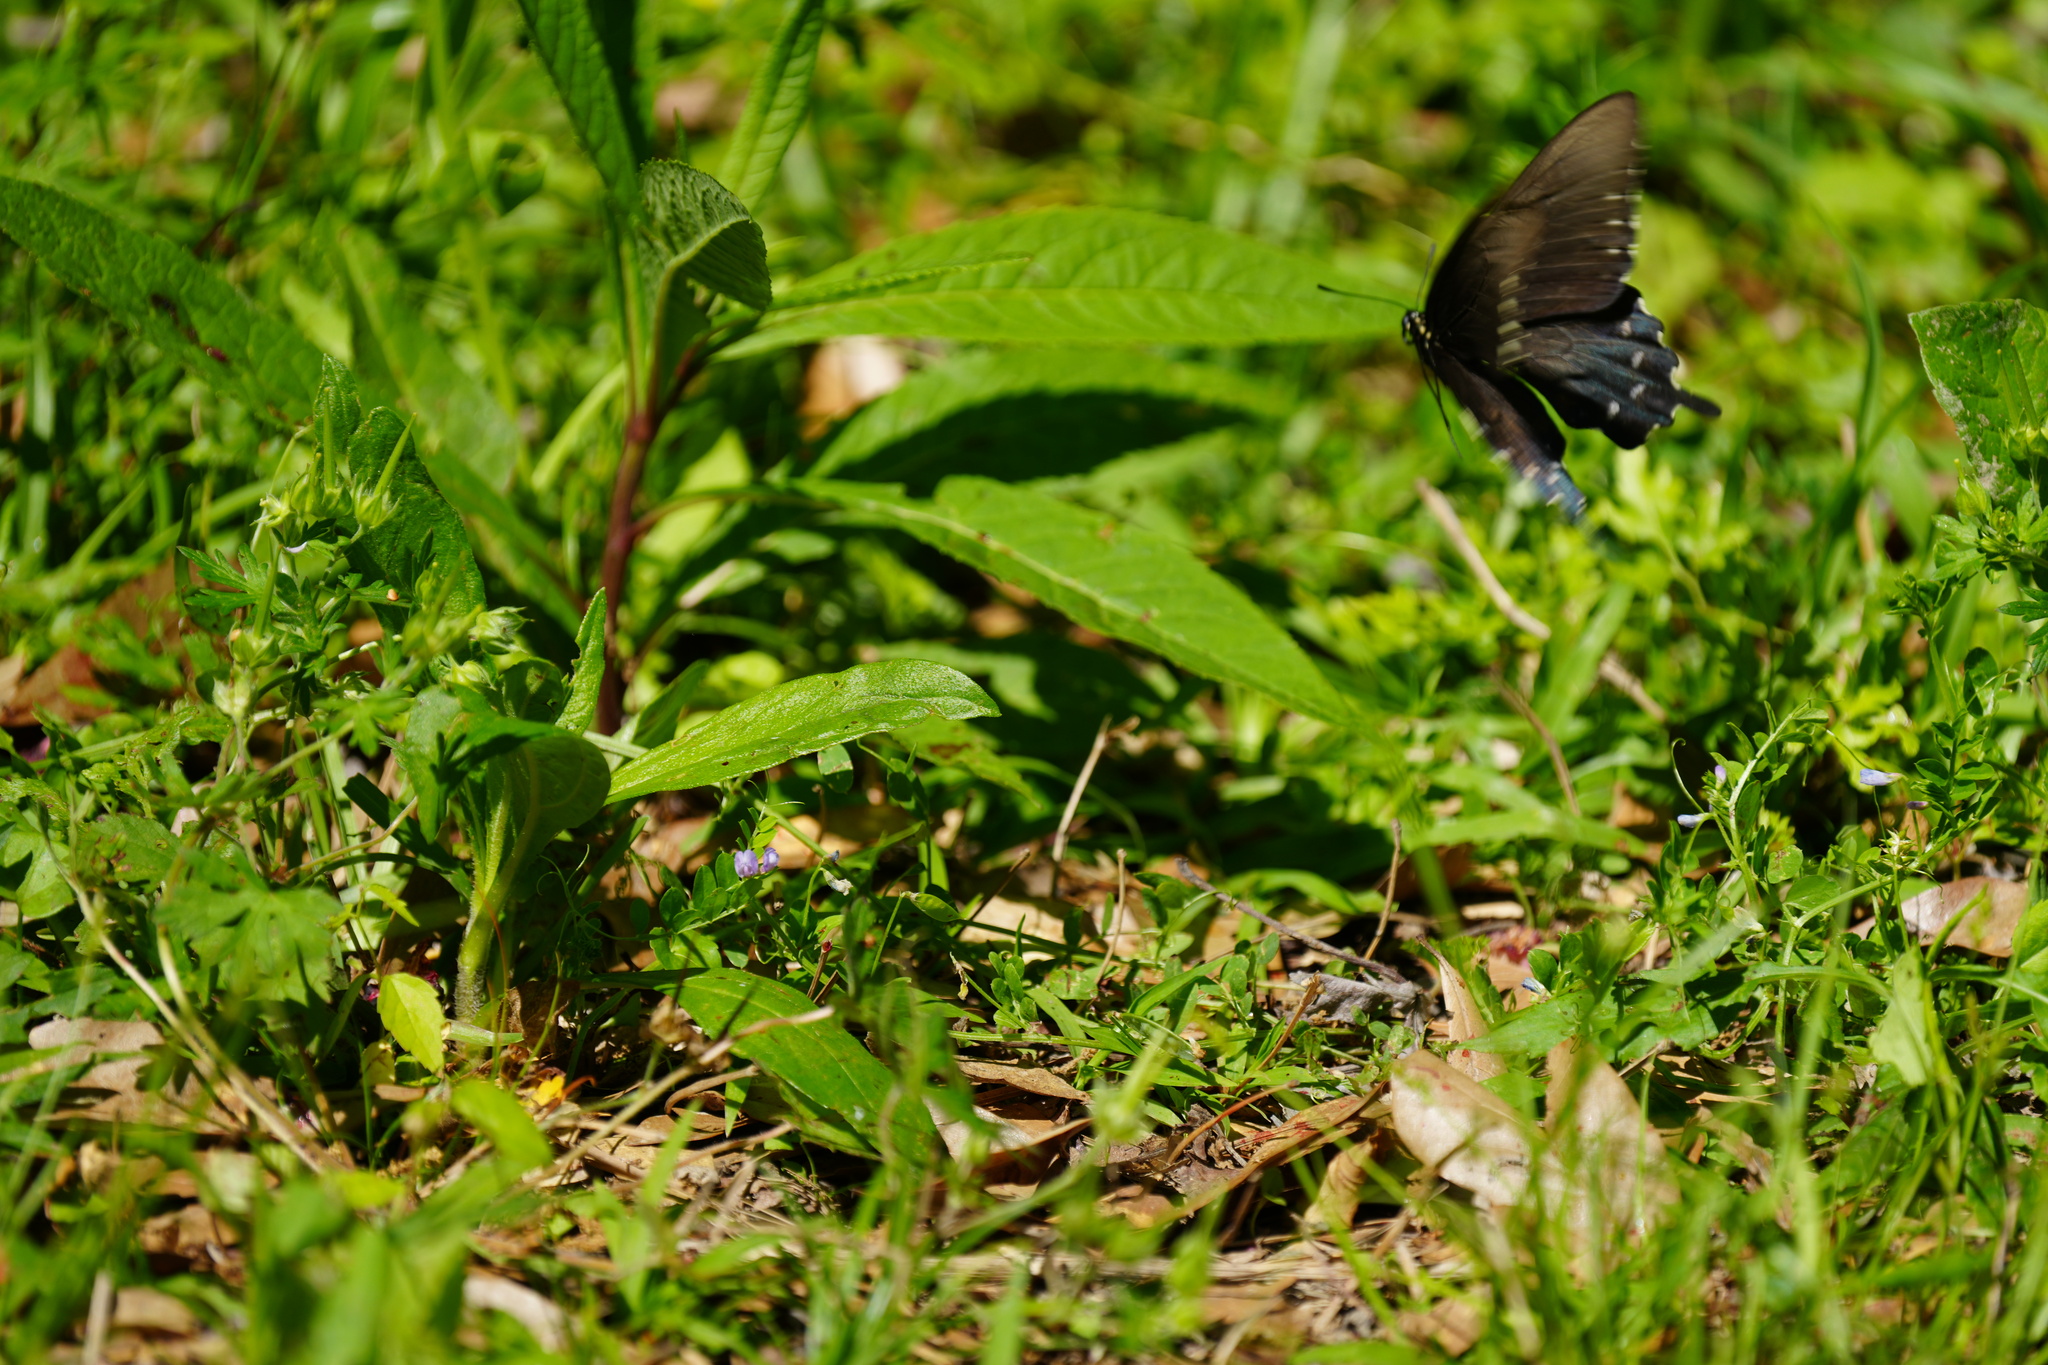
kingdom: Animalia
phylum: Arthropoda
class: Insecta
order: Lepidoptera
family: Papilionidae
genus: Battus
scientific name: Battus philenor
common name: Pipevine swallowtail
